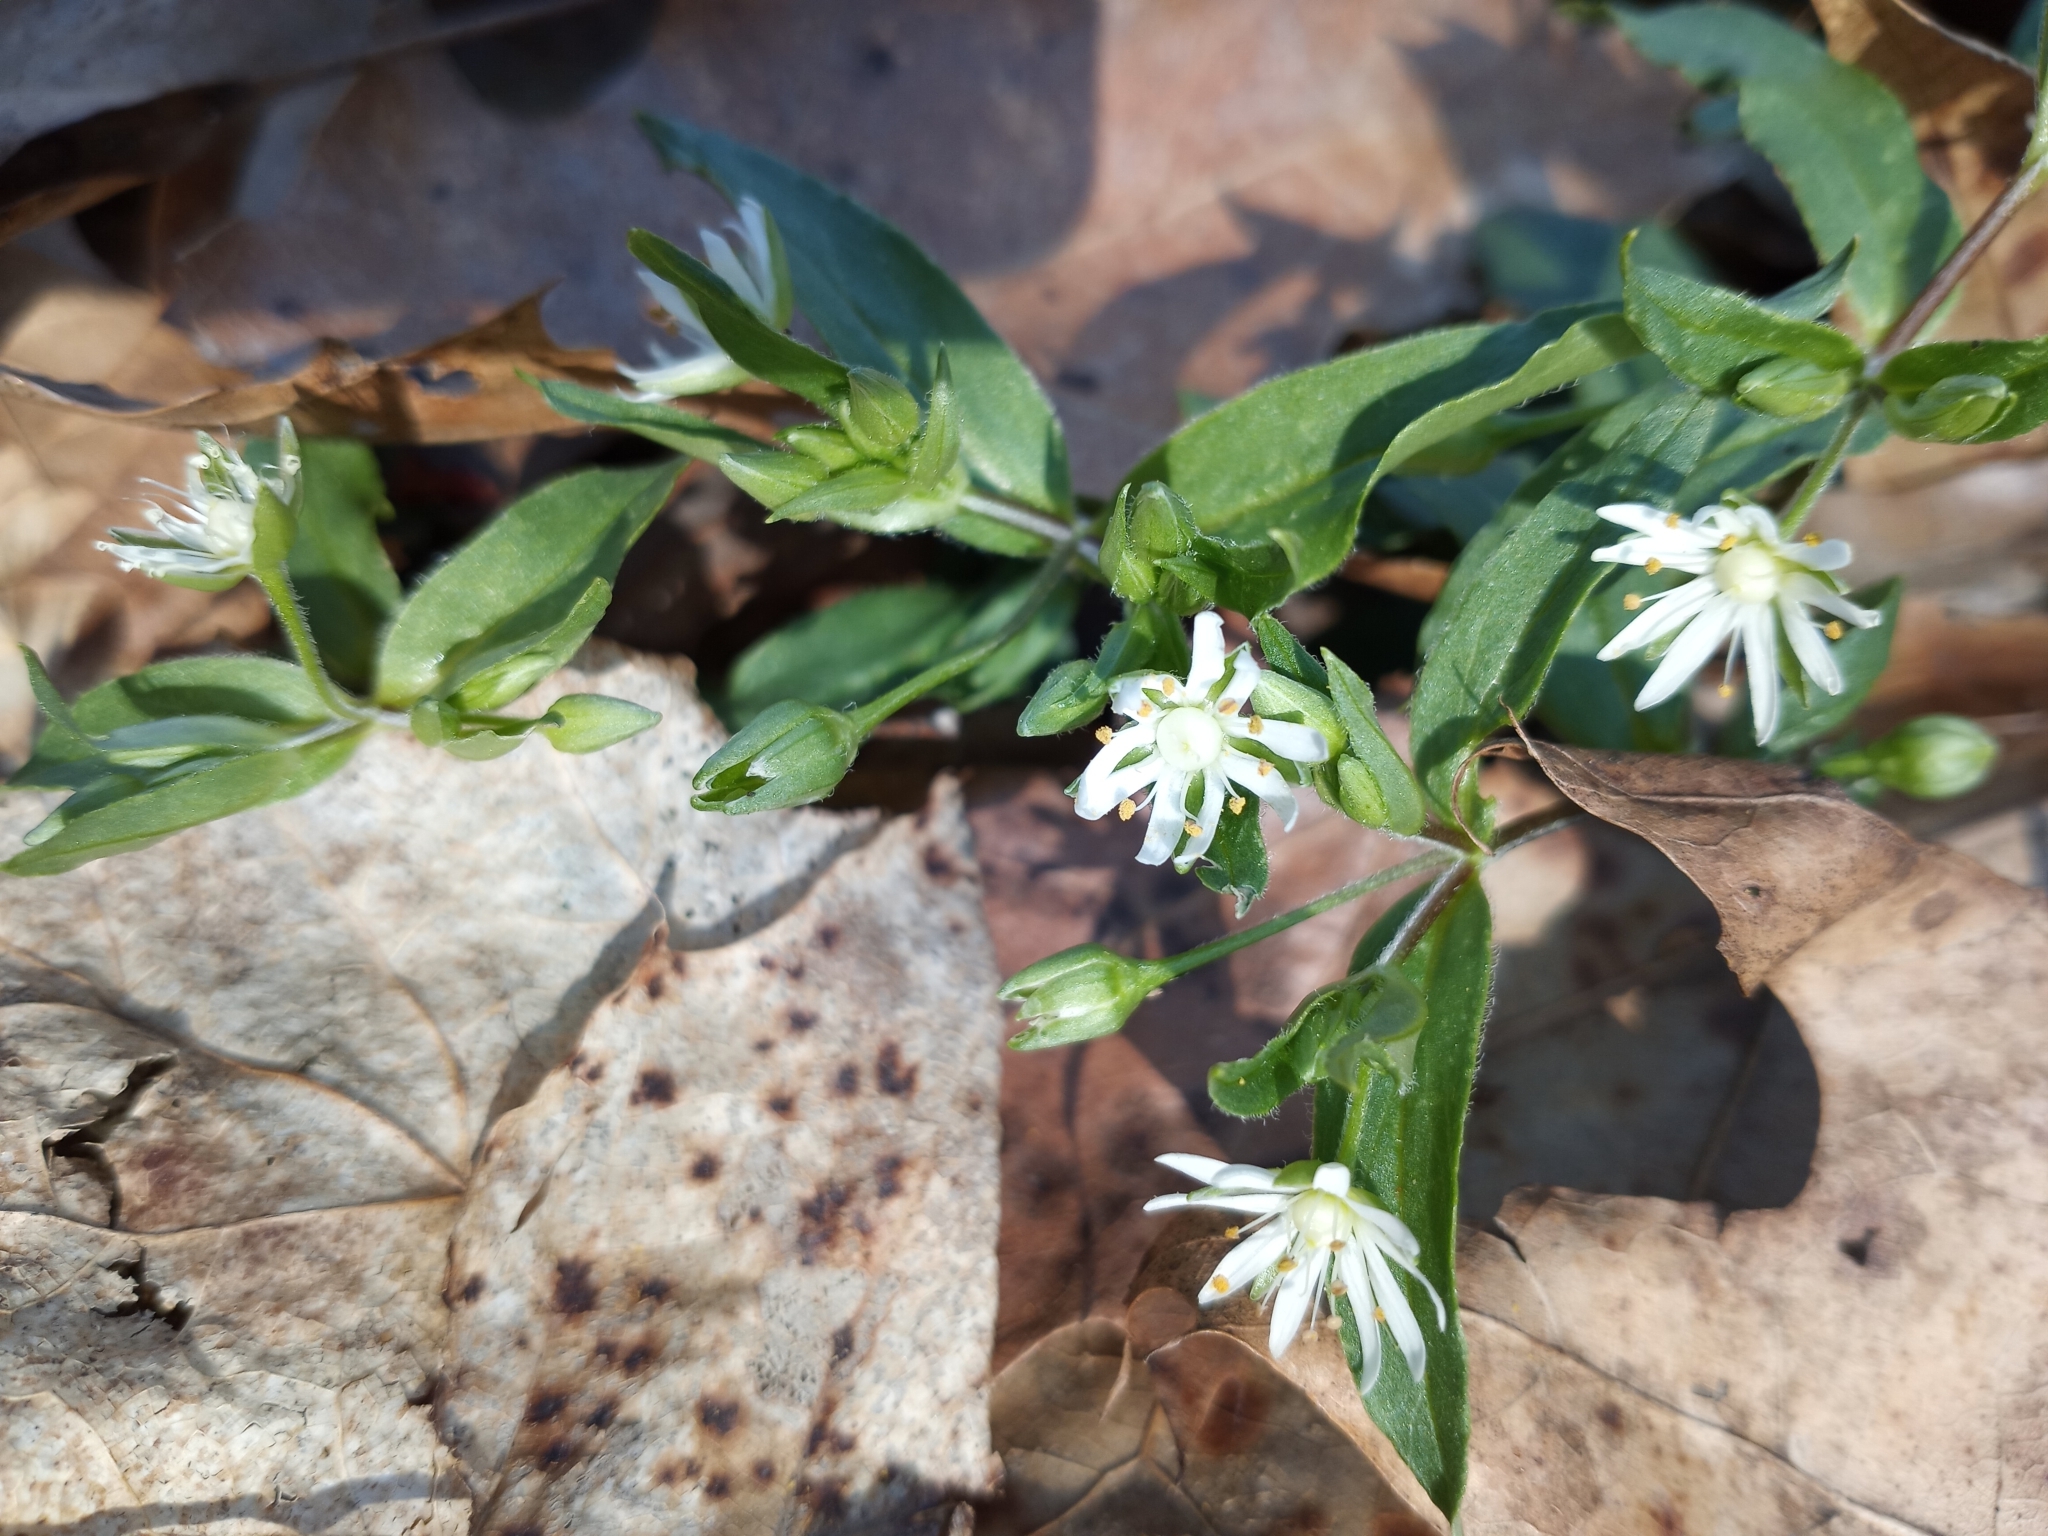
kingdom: Plantae
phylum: Tracheophyta
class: Magnoliopsida
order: Caryophyllales
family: Caryophyllaceae
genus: Stellaria
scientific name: Stellaria pubera
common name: Star chickweed
